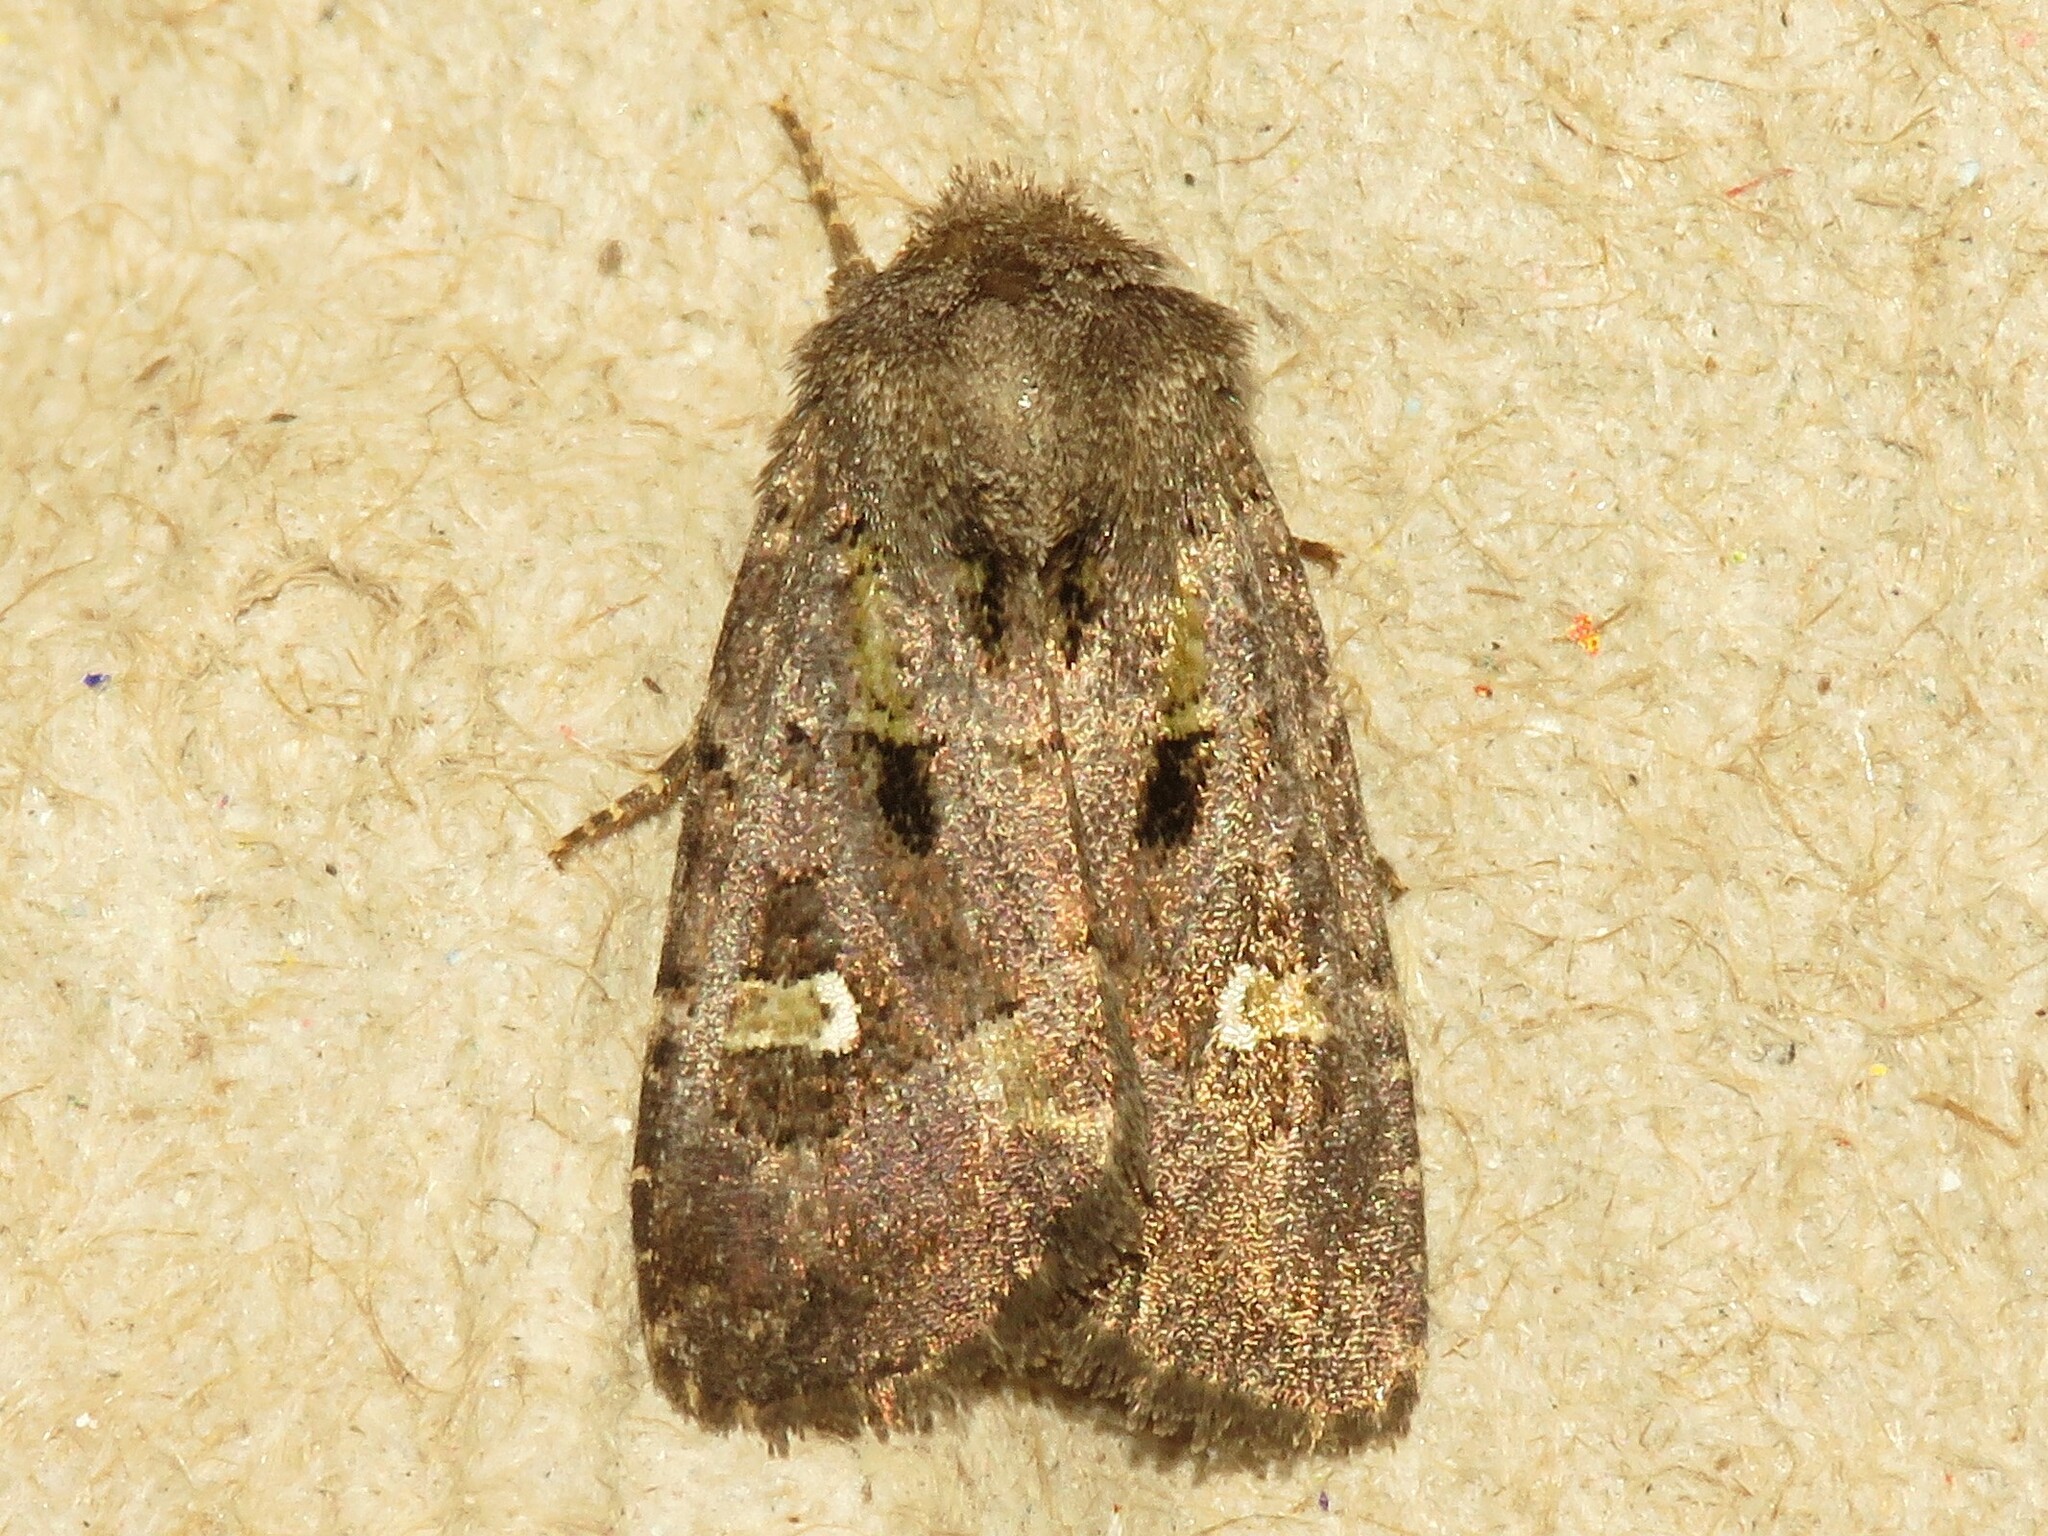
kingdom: Animalia
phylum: Arthropoda
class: Insecta
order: Lepidoptera
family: Noctuidae
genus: Lacinipolia
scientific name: Lacinipolia renigera
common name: Kidney-spotted minor
